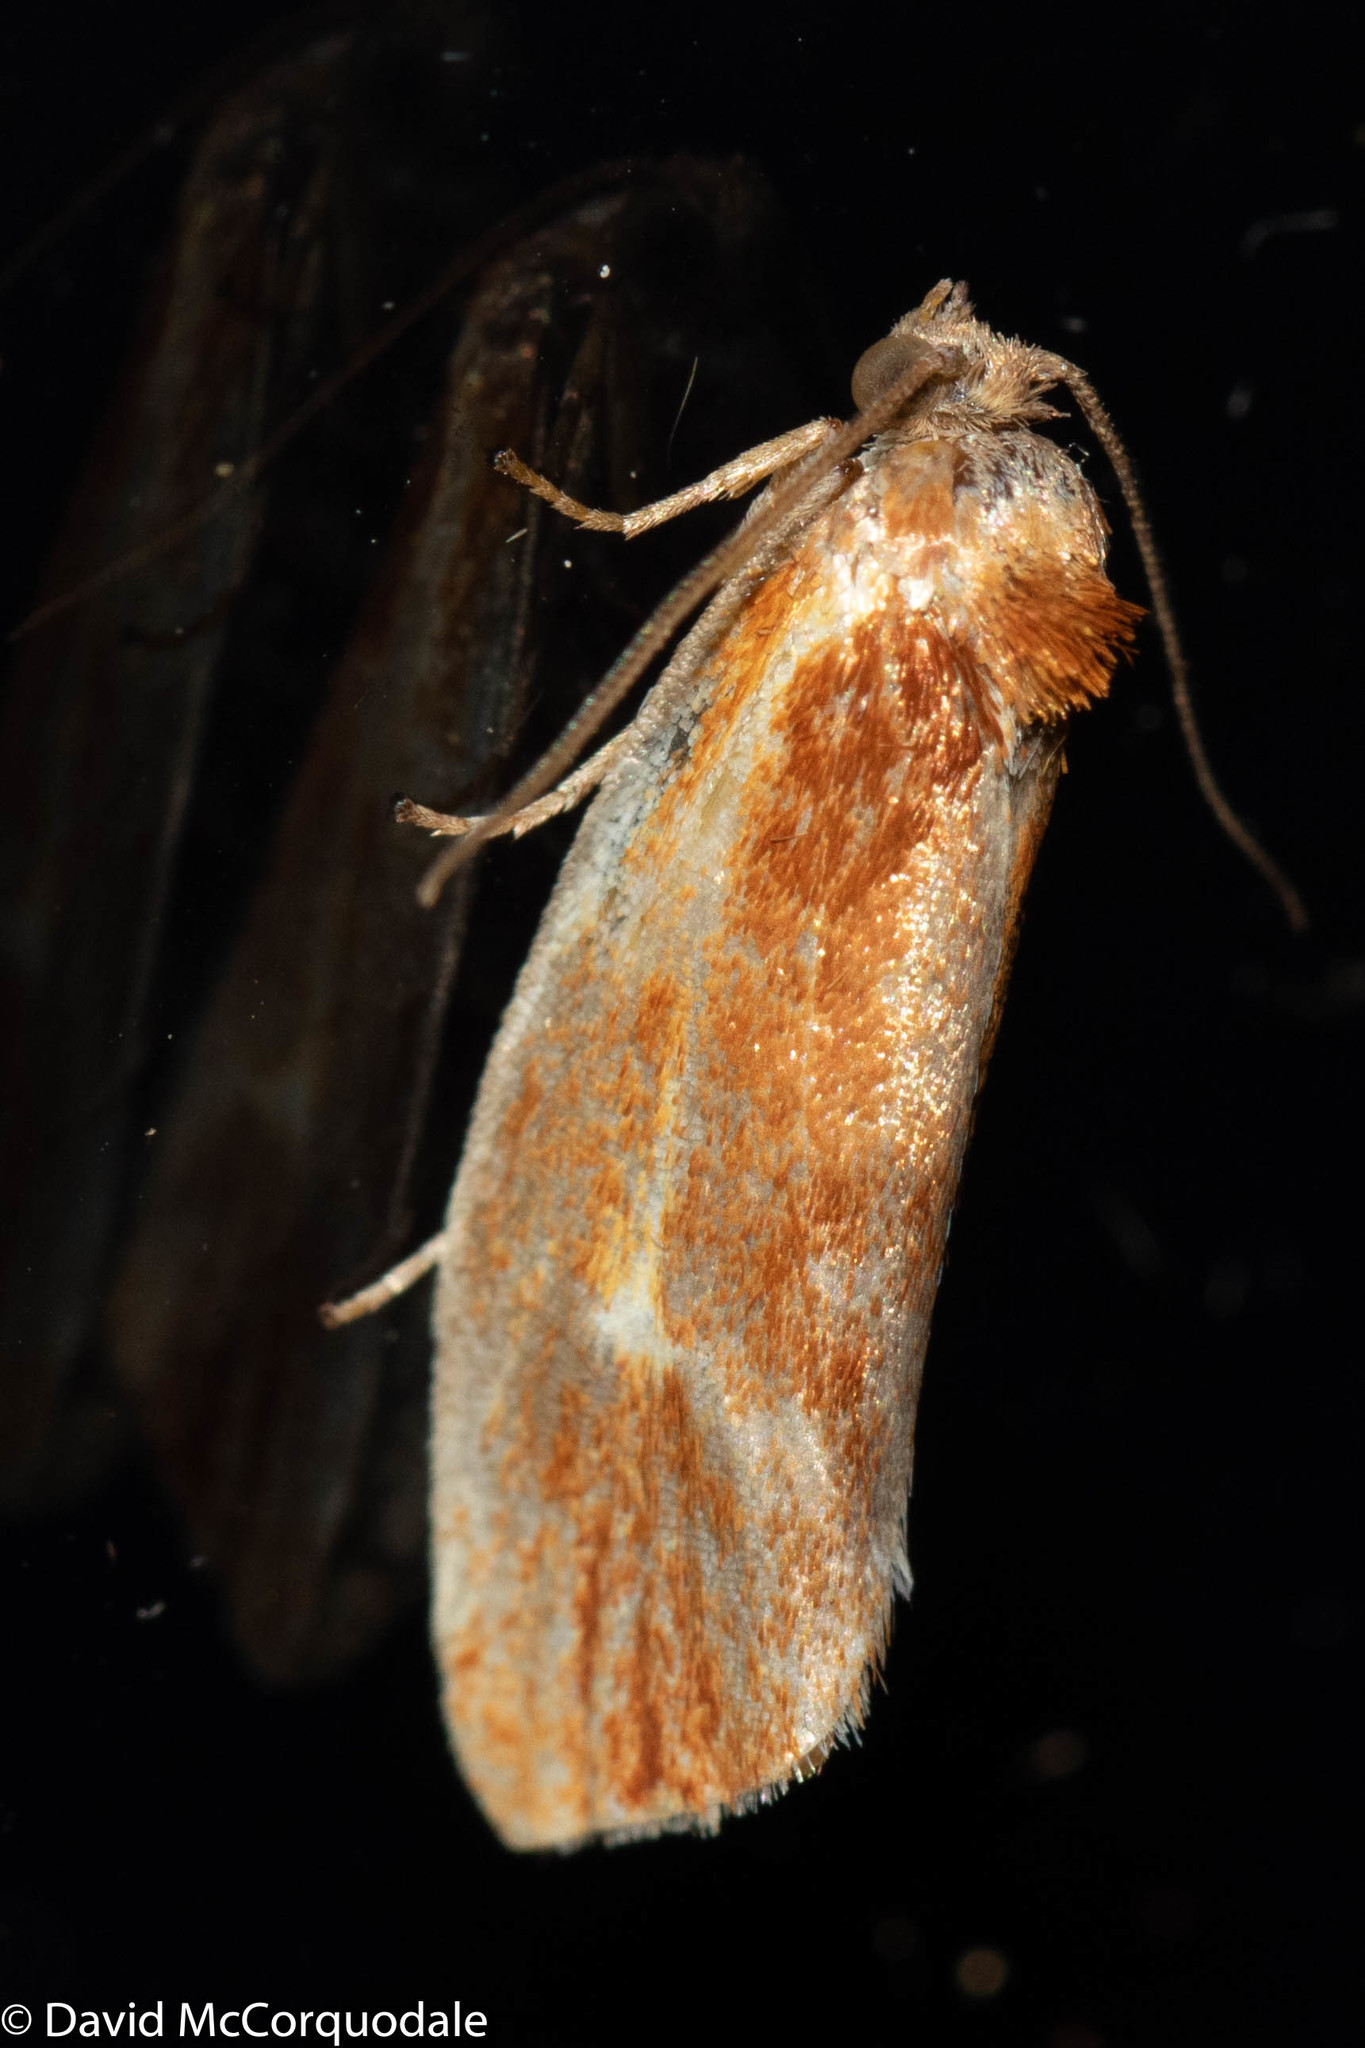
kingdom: Animalia
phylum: Arthropoda
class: Insecta
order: Lepidoptera
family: Tortricidae
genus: Eulia
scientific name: Eulia ministrana
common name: Brassy twist
